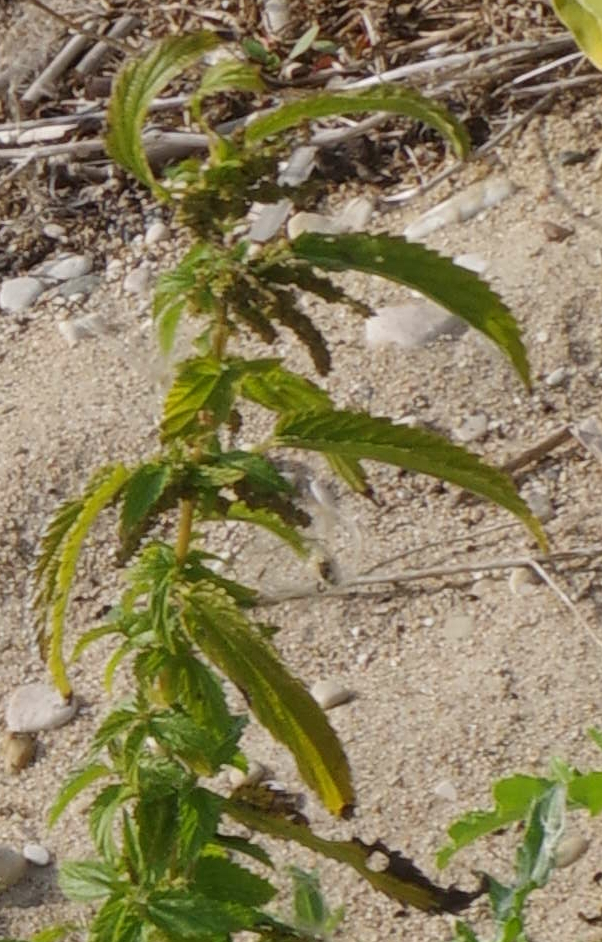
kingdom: Plantae
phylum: Tracheophyta
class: Magnoliopsida
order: Rosales
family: Urticaceae
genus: Urtica
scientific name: Urtica gracilis
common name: Slender stinging nettle
